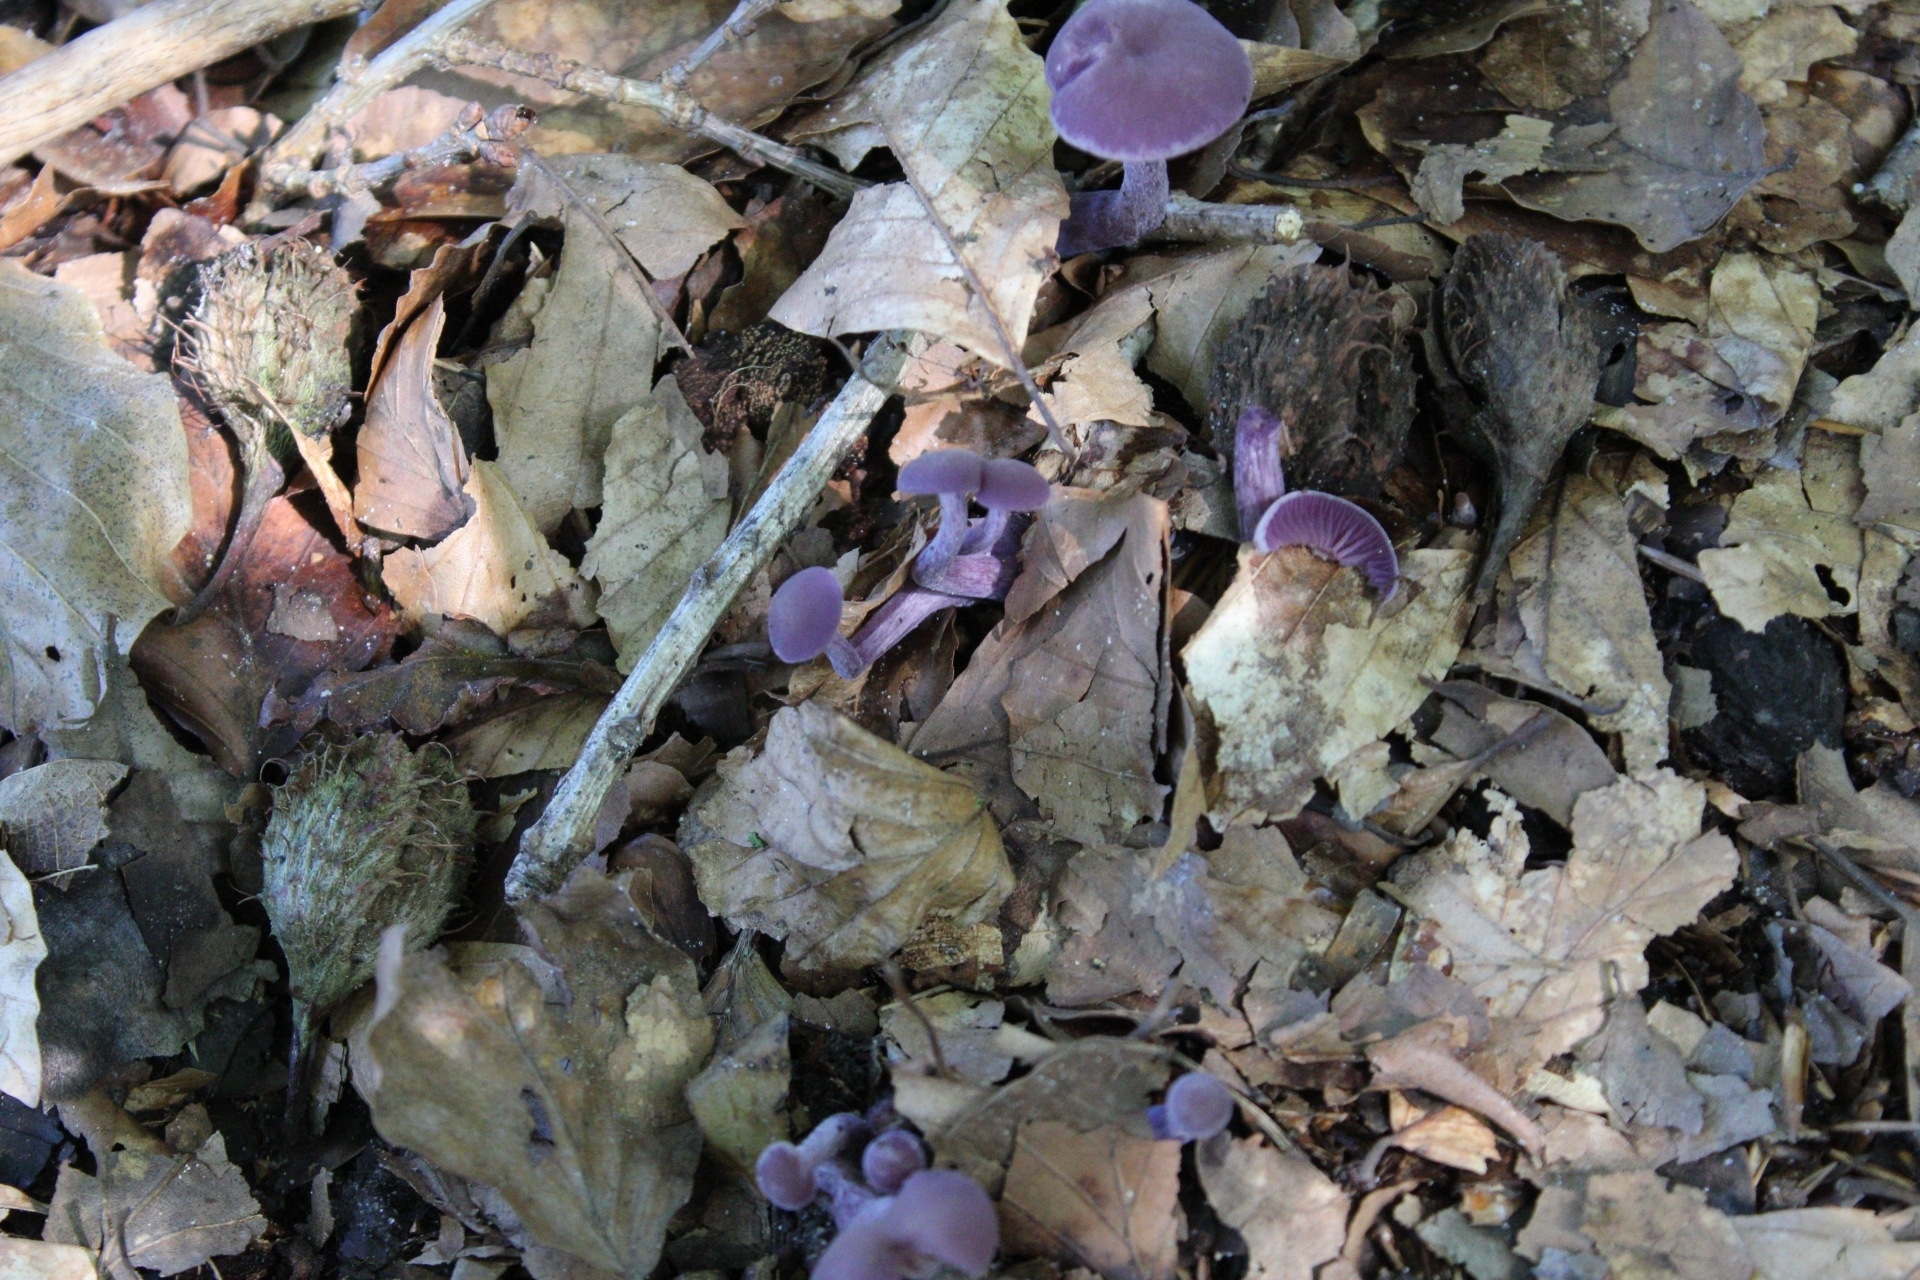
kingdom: Fungi
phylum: Basidiomycota
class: Agaricomycetes
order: Agaricales
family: Hydnangiaceae
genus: Laccaria
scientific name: Laccaria amethystina
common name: Amethyst deceiver
